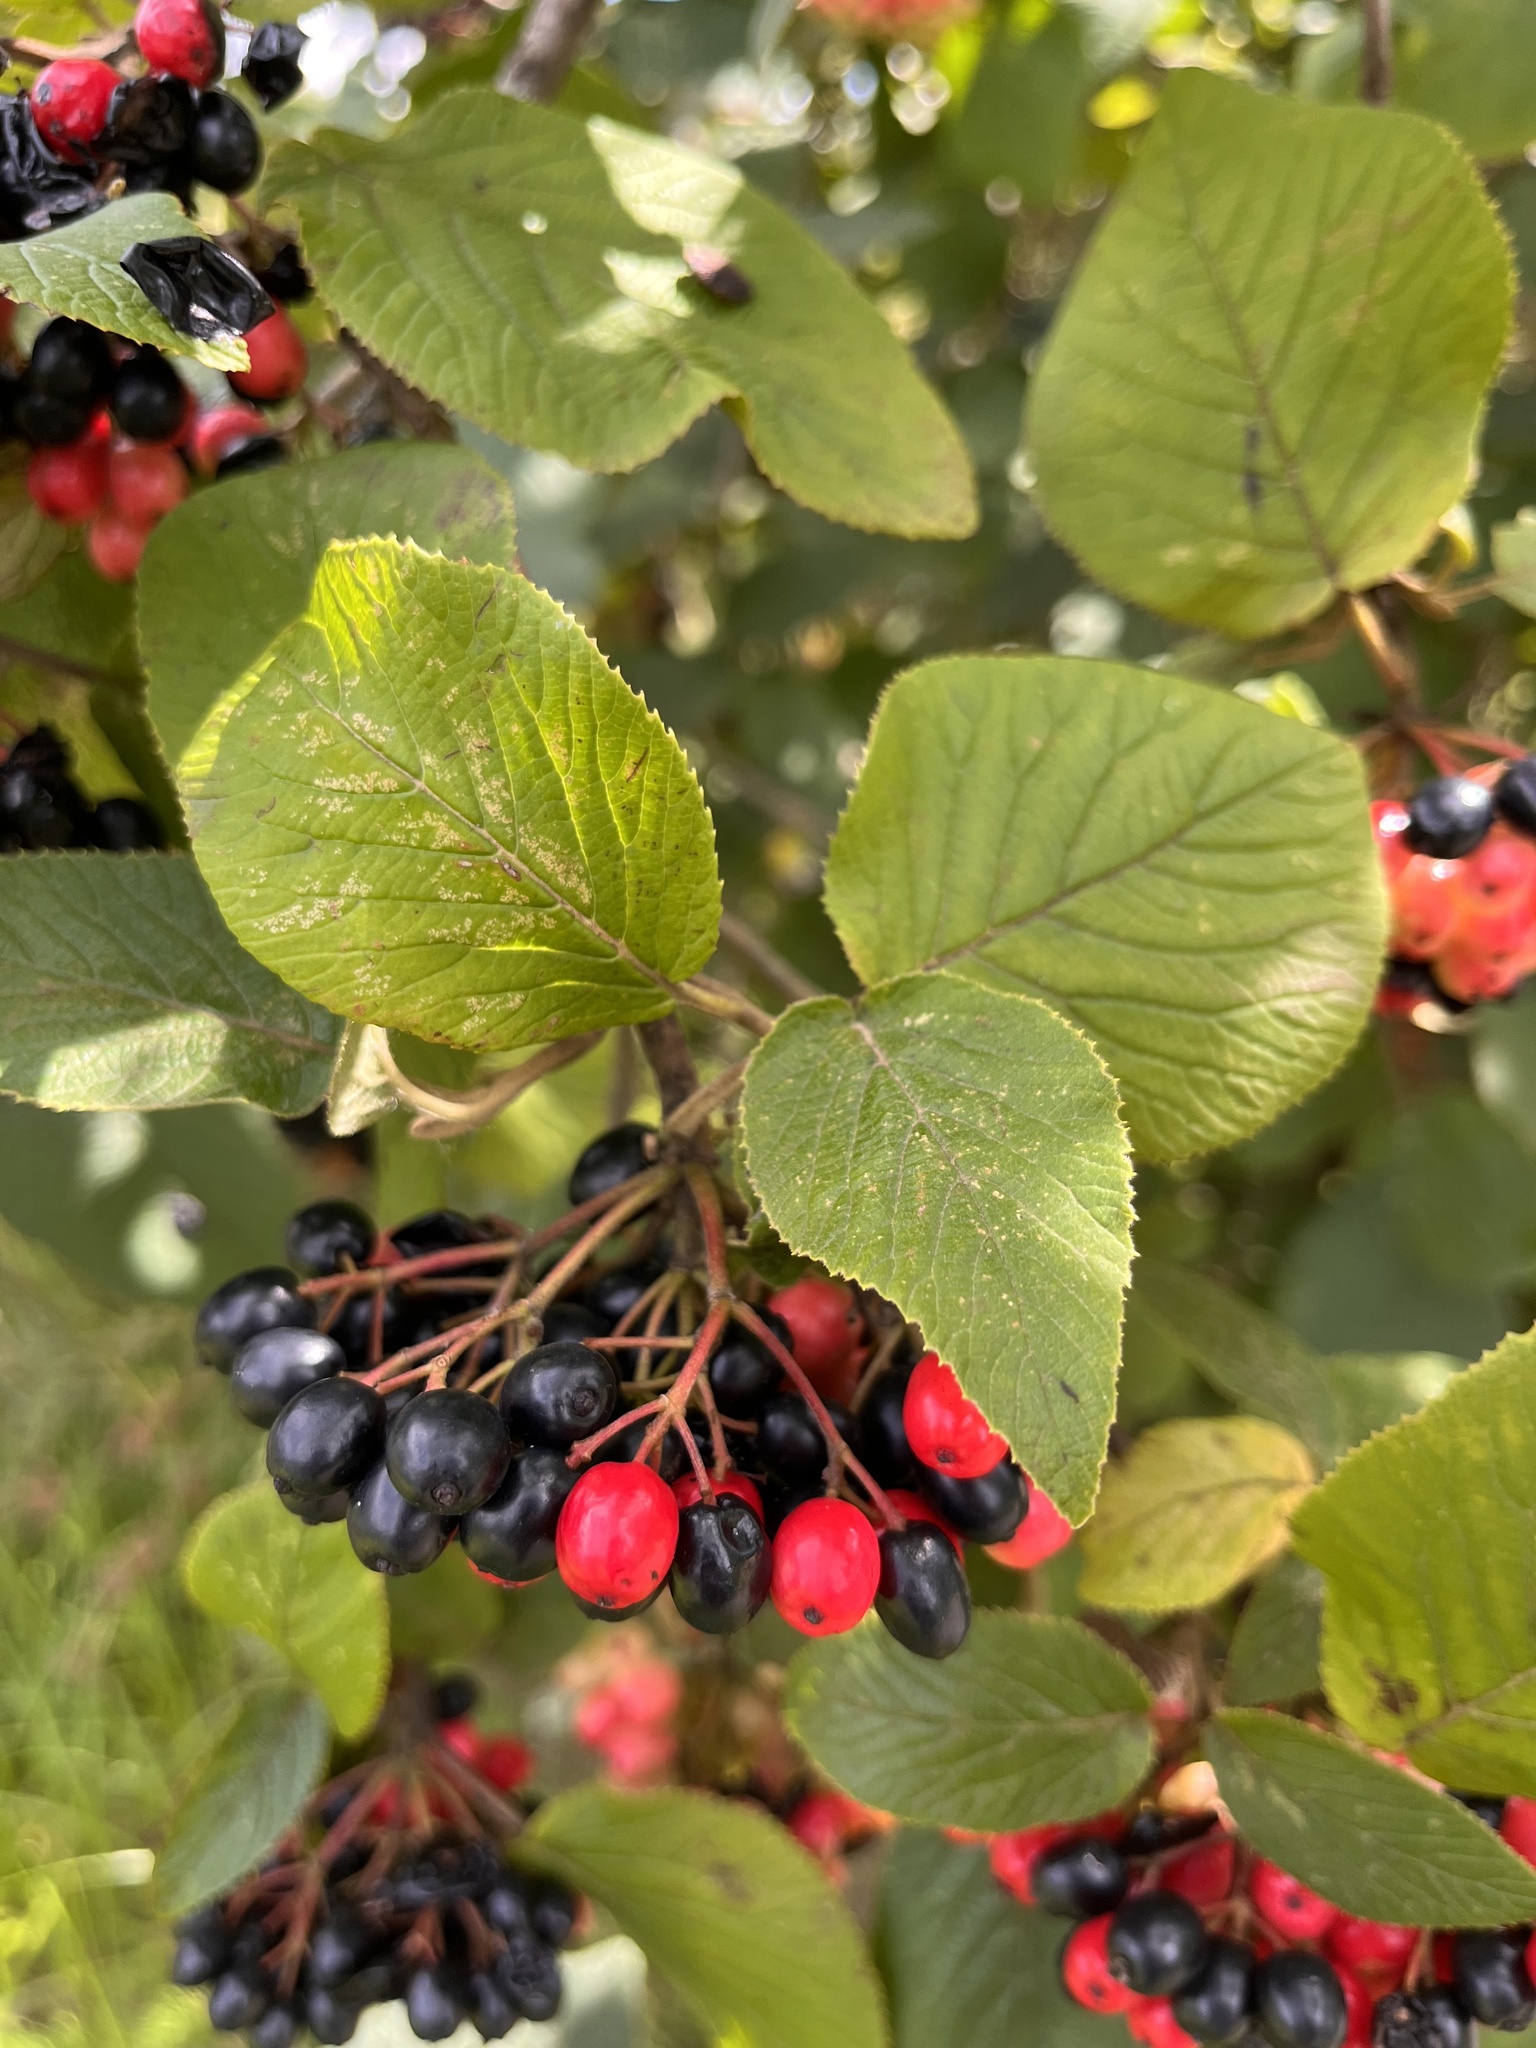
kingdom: Plantae
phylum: Tracheophyta
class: Magnoliopsida
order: Dipsacales
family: Viburnaceae
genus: Viburnum
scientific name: Viburnum lantana
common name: Wayfaring tree
